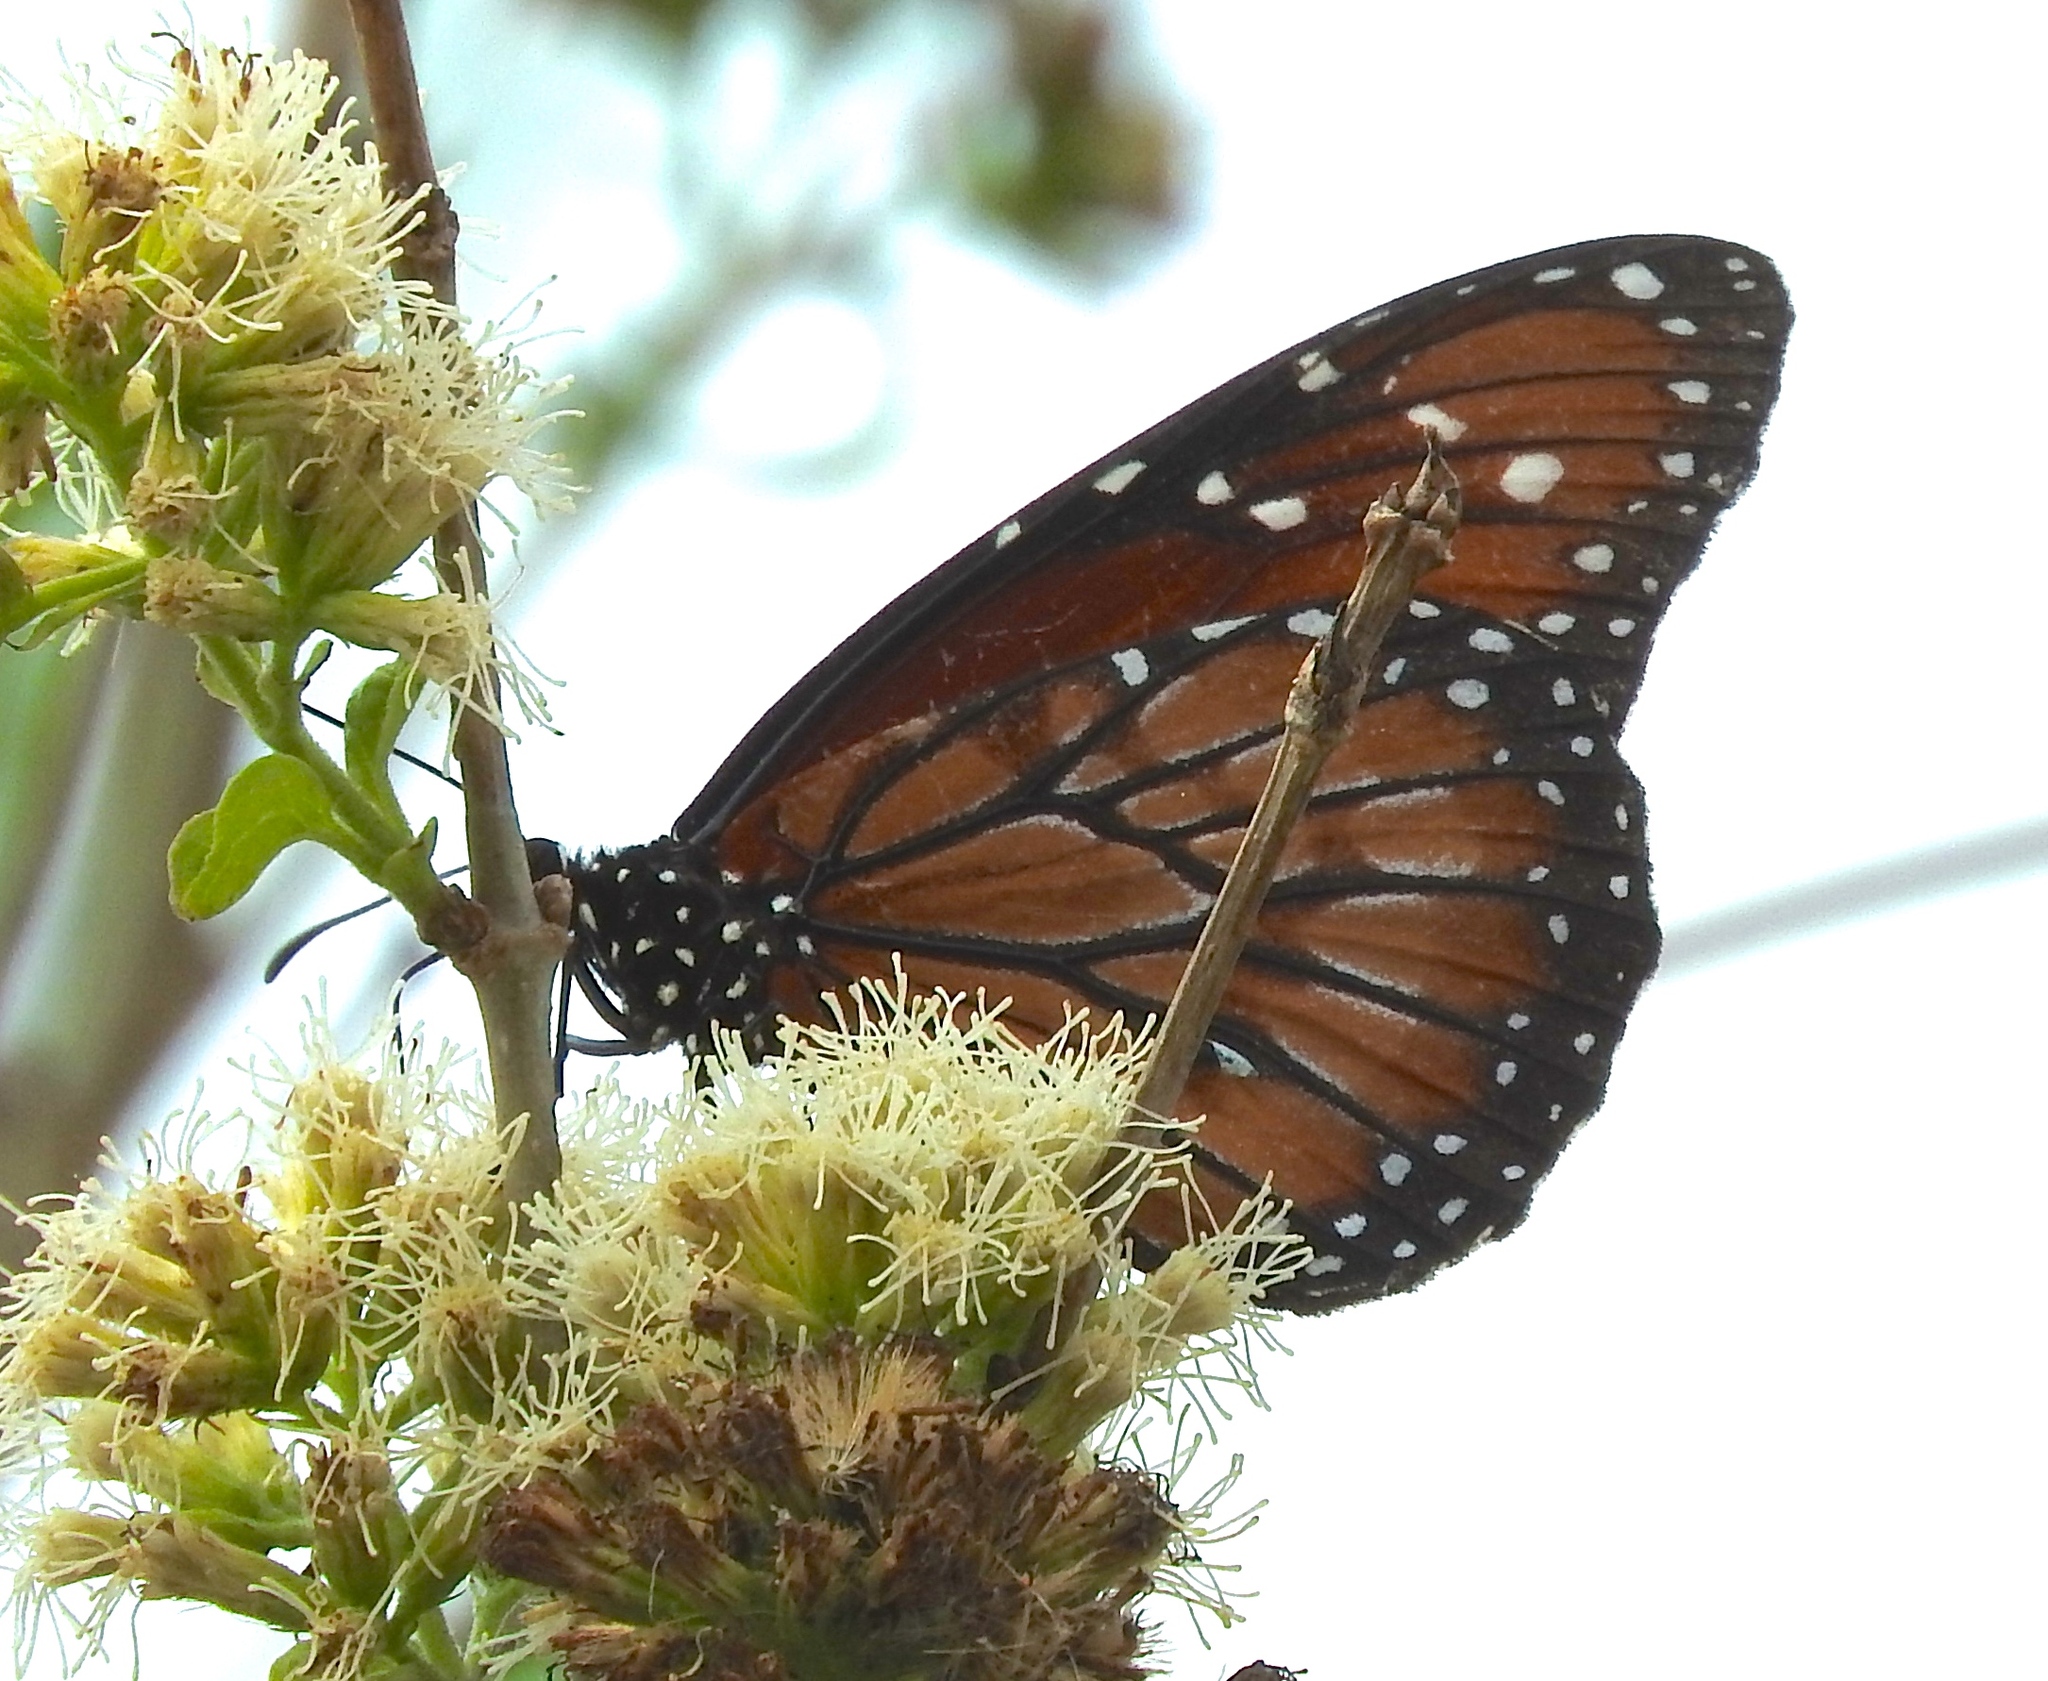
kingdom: Animalia
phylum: Arthropoda
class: Insecta
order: Lepidoptera
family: Nymphalidae
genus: Danaus
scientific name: Danaus eresimus
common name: Soldier
